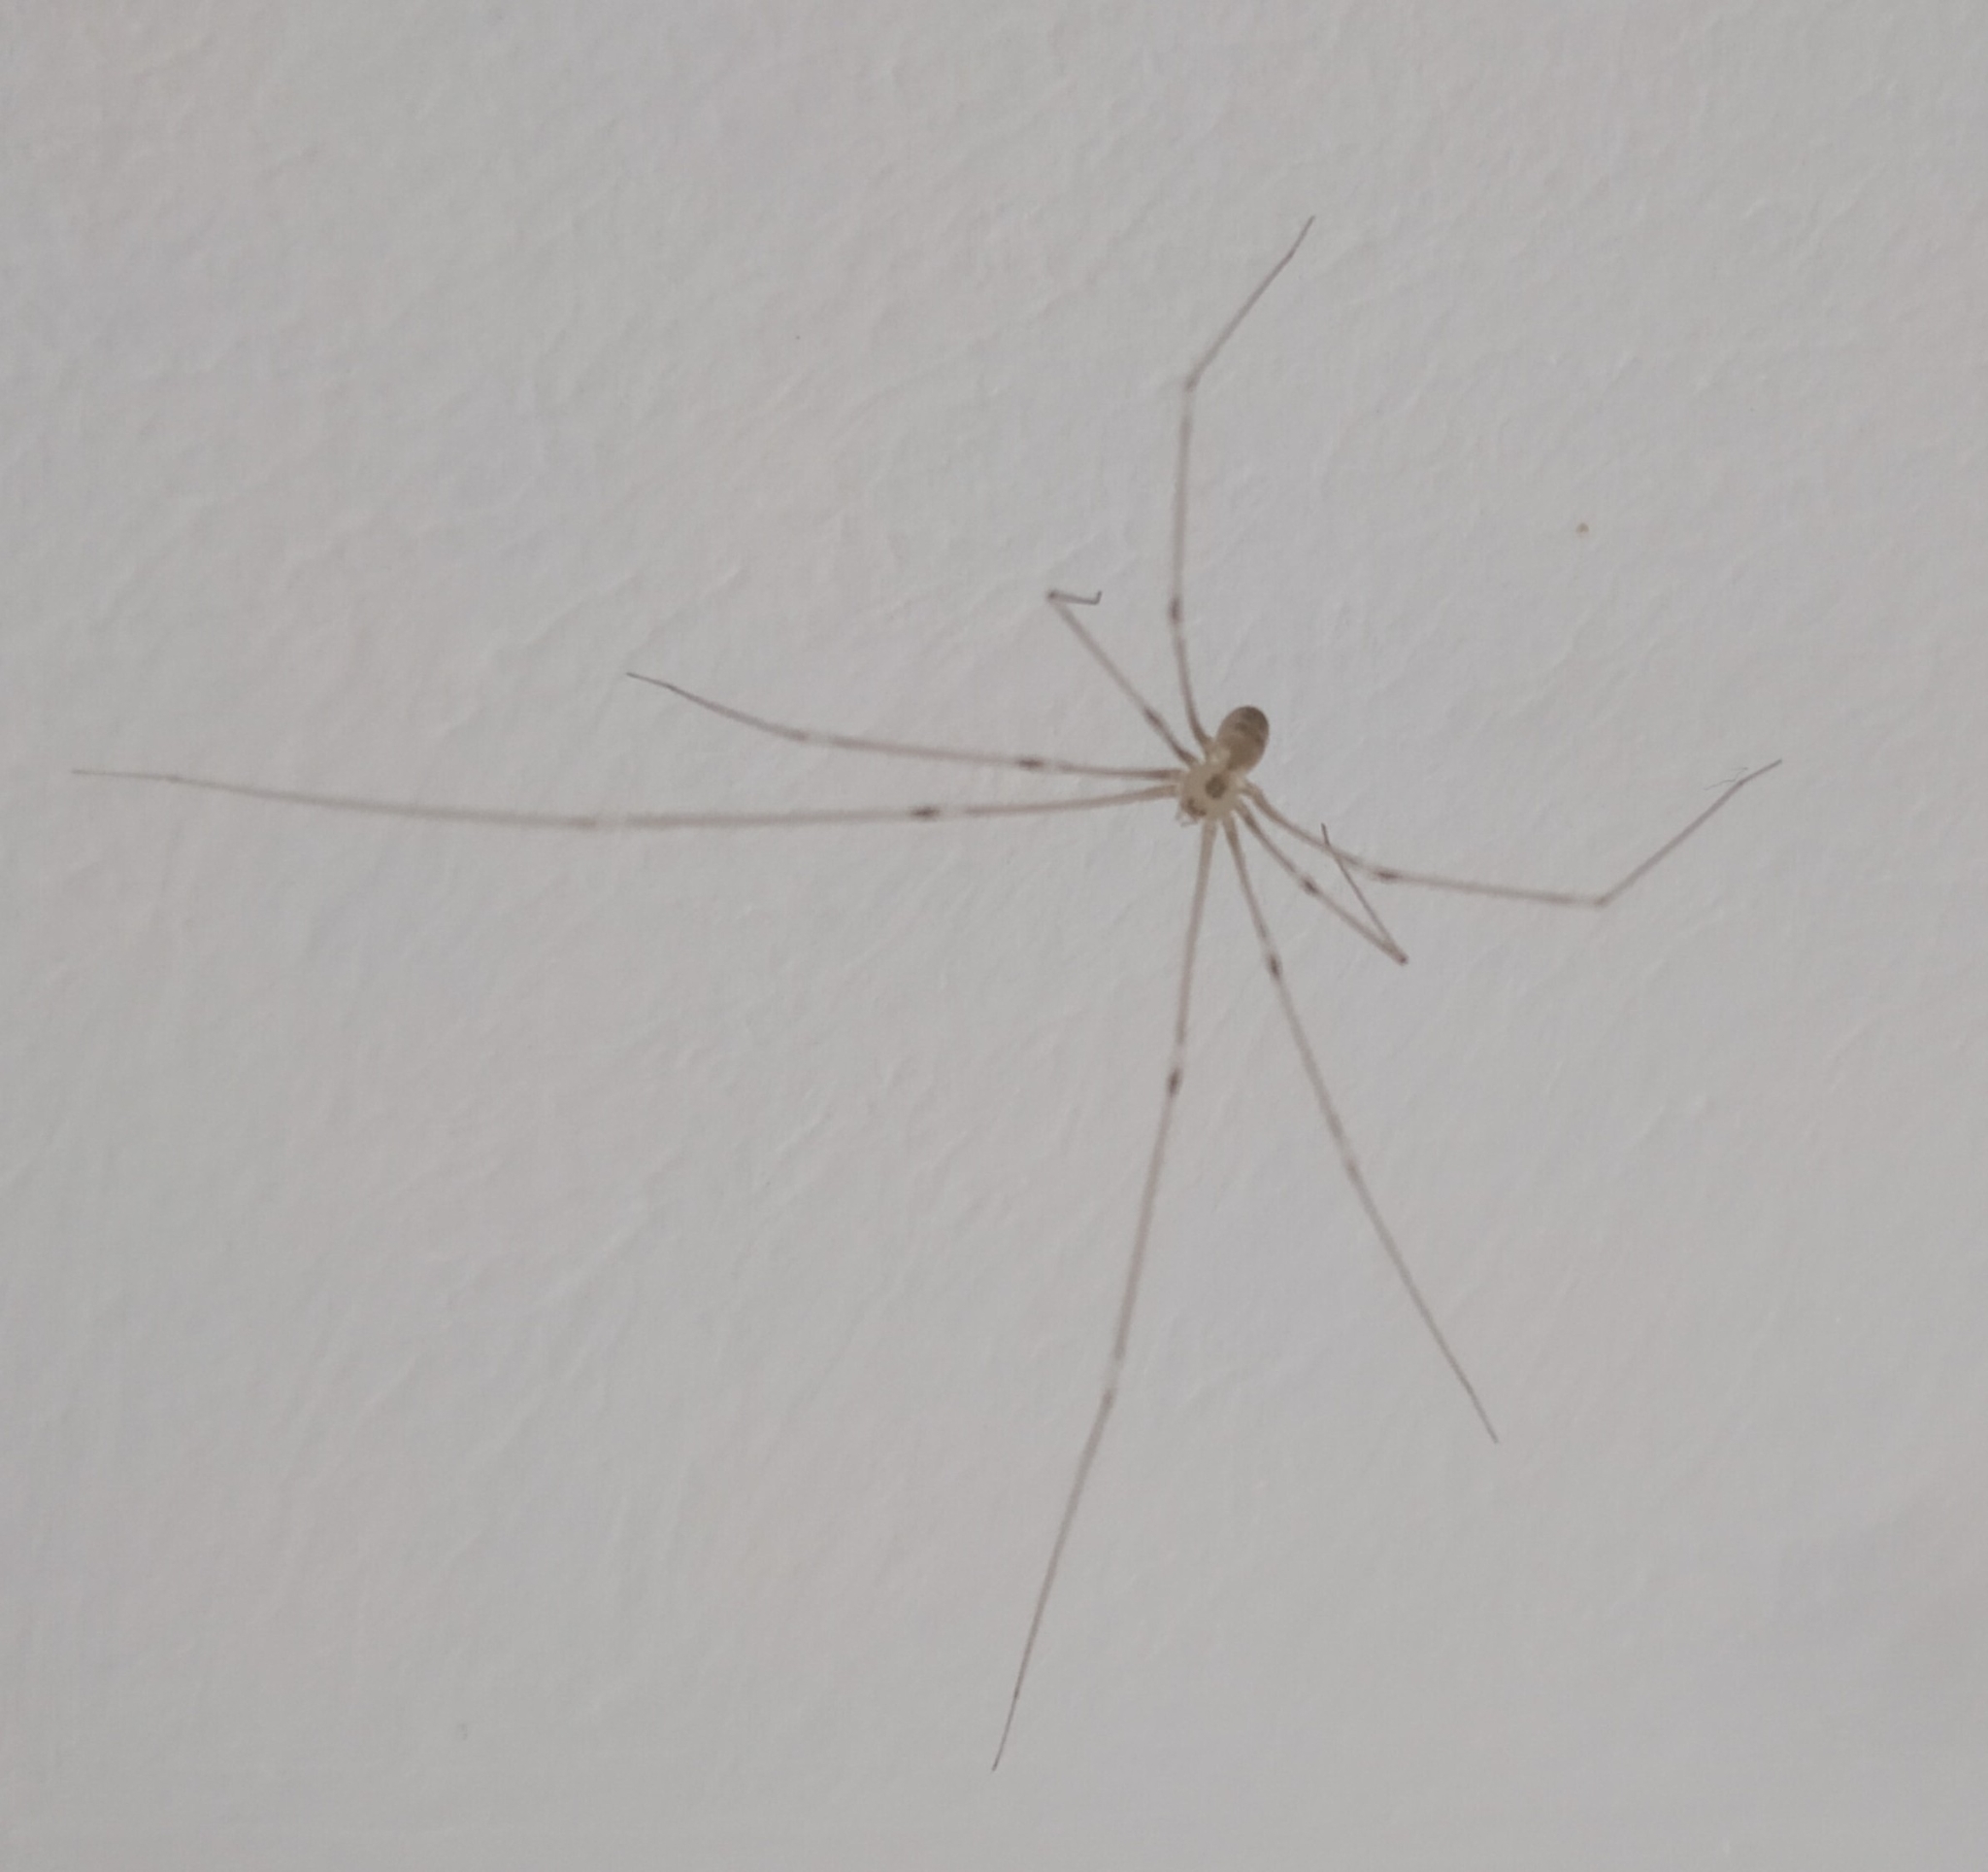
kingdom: Animalia
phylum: Arthropoda
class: Arachnida
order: Araneae
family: Pholcidae
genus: Pholcus
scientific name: Pholcus phalangioides
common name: Longbodied cellar spider
